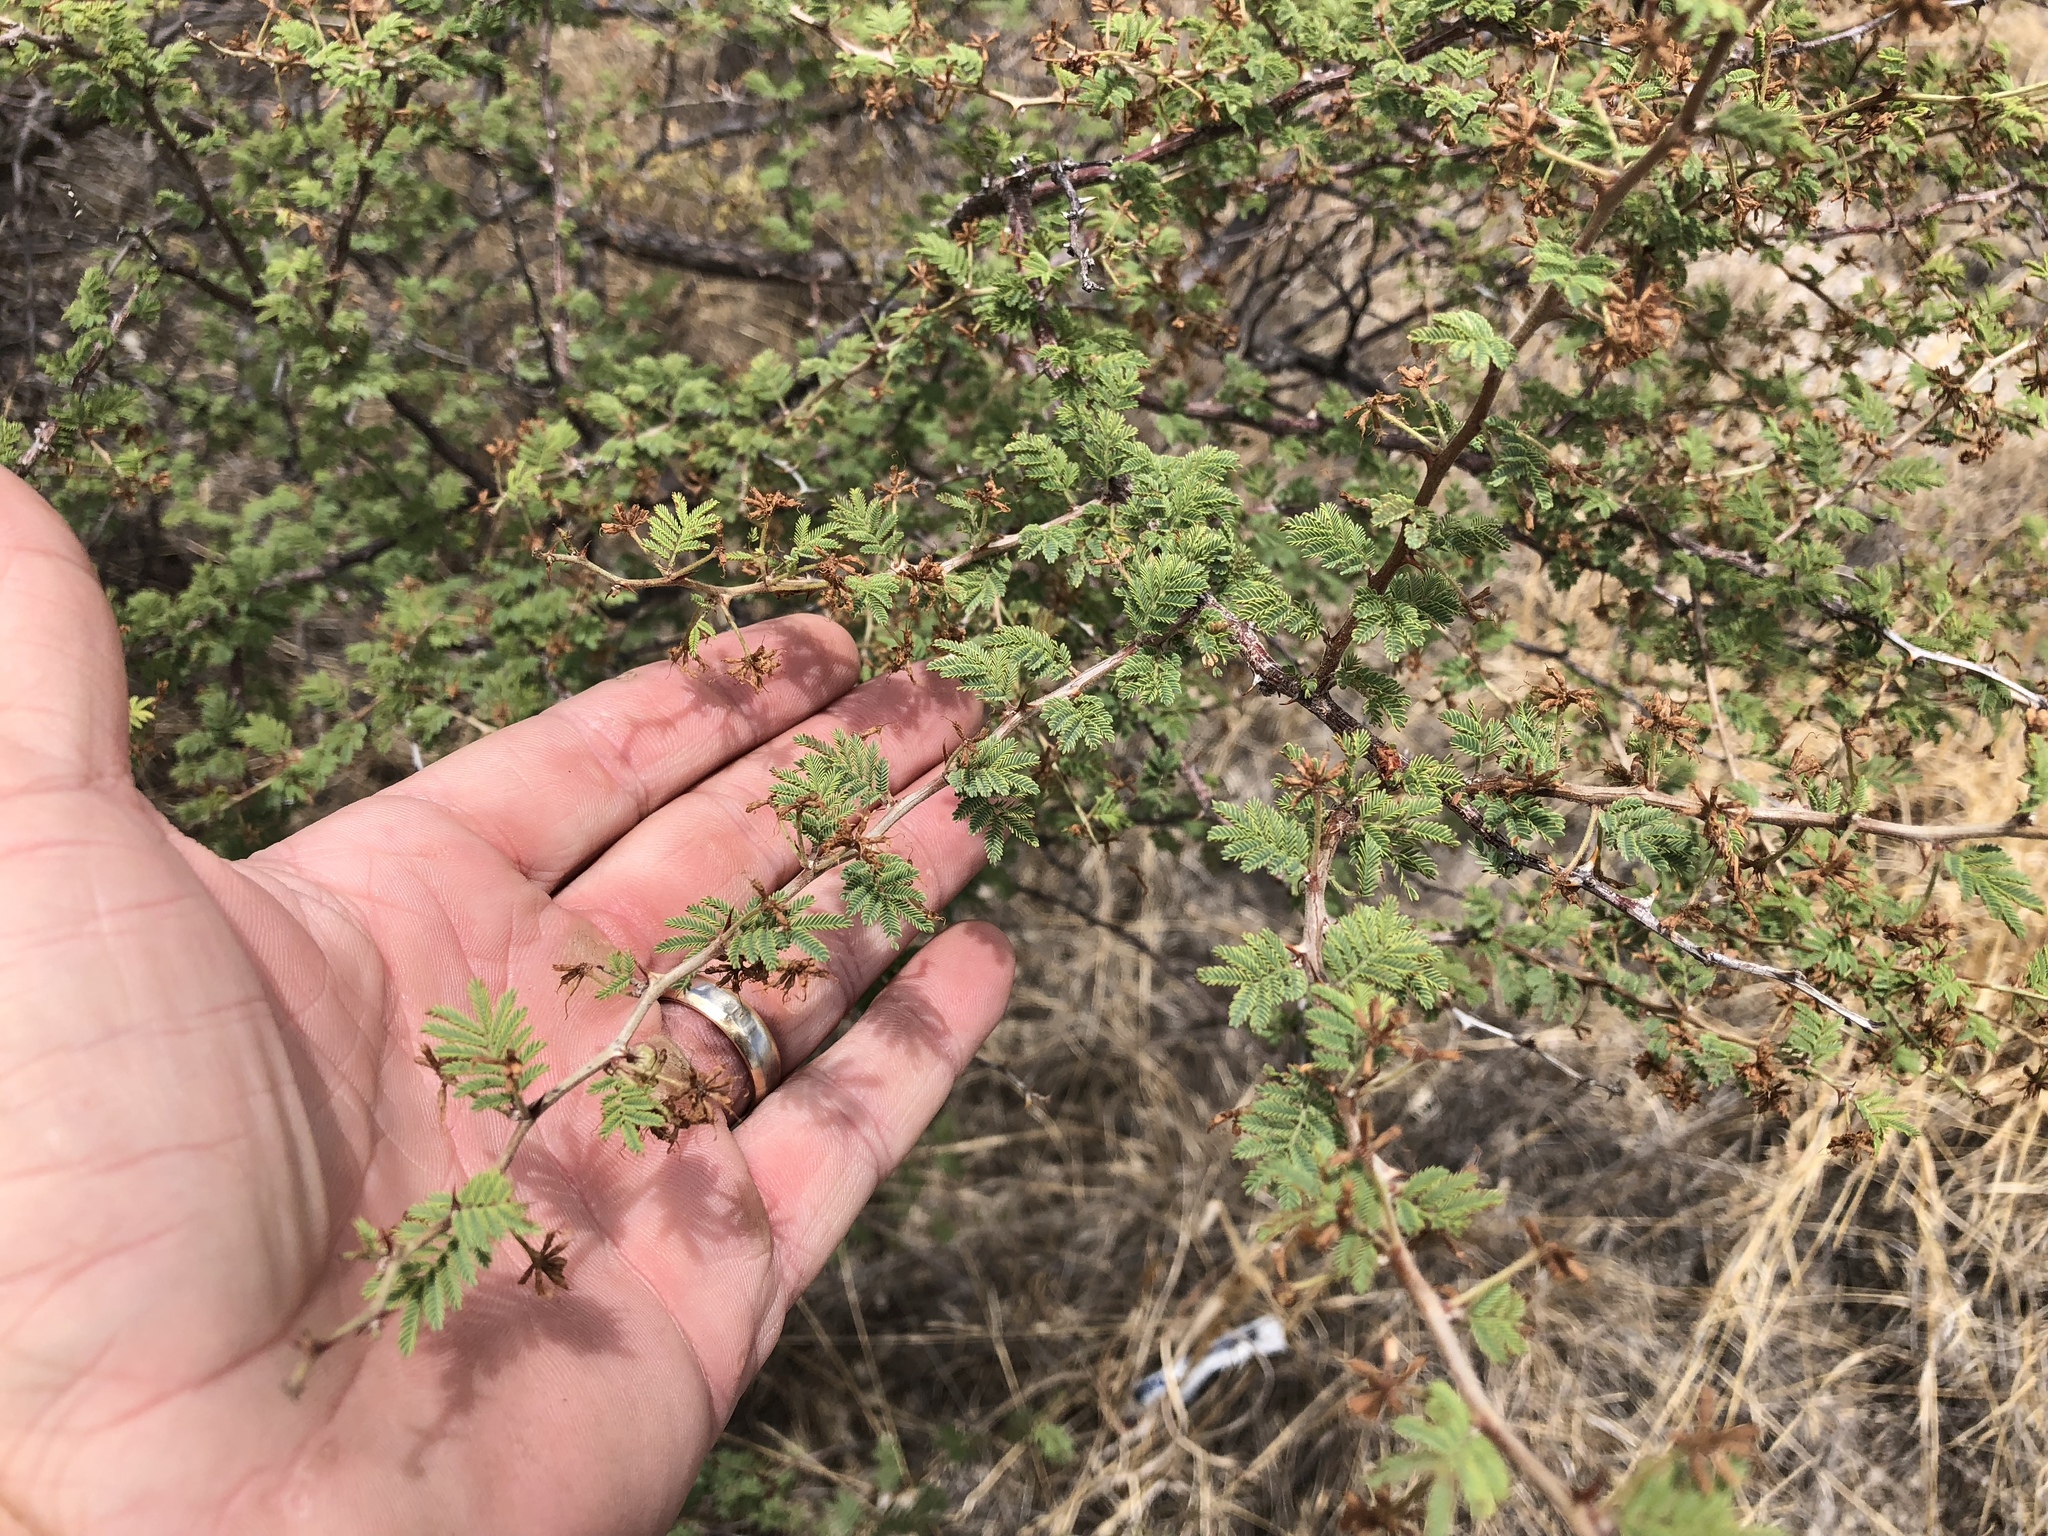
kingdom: Plantae
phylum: Tracheophyta
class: Magnoliopsida
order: Fabales
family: Fabaceae
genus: Mimosa
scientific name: Mimosa aculeaticarpa
